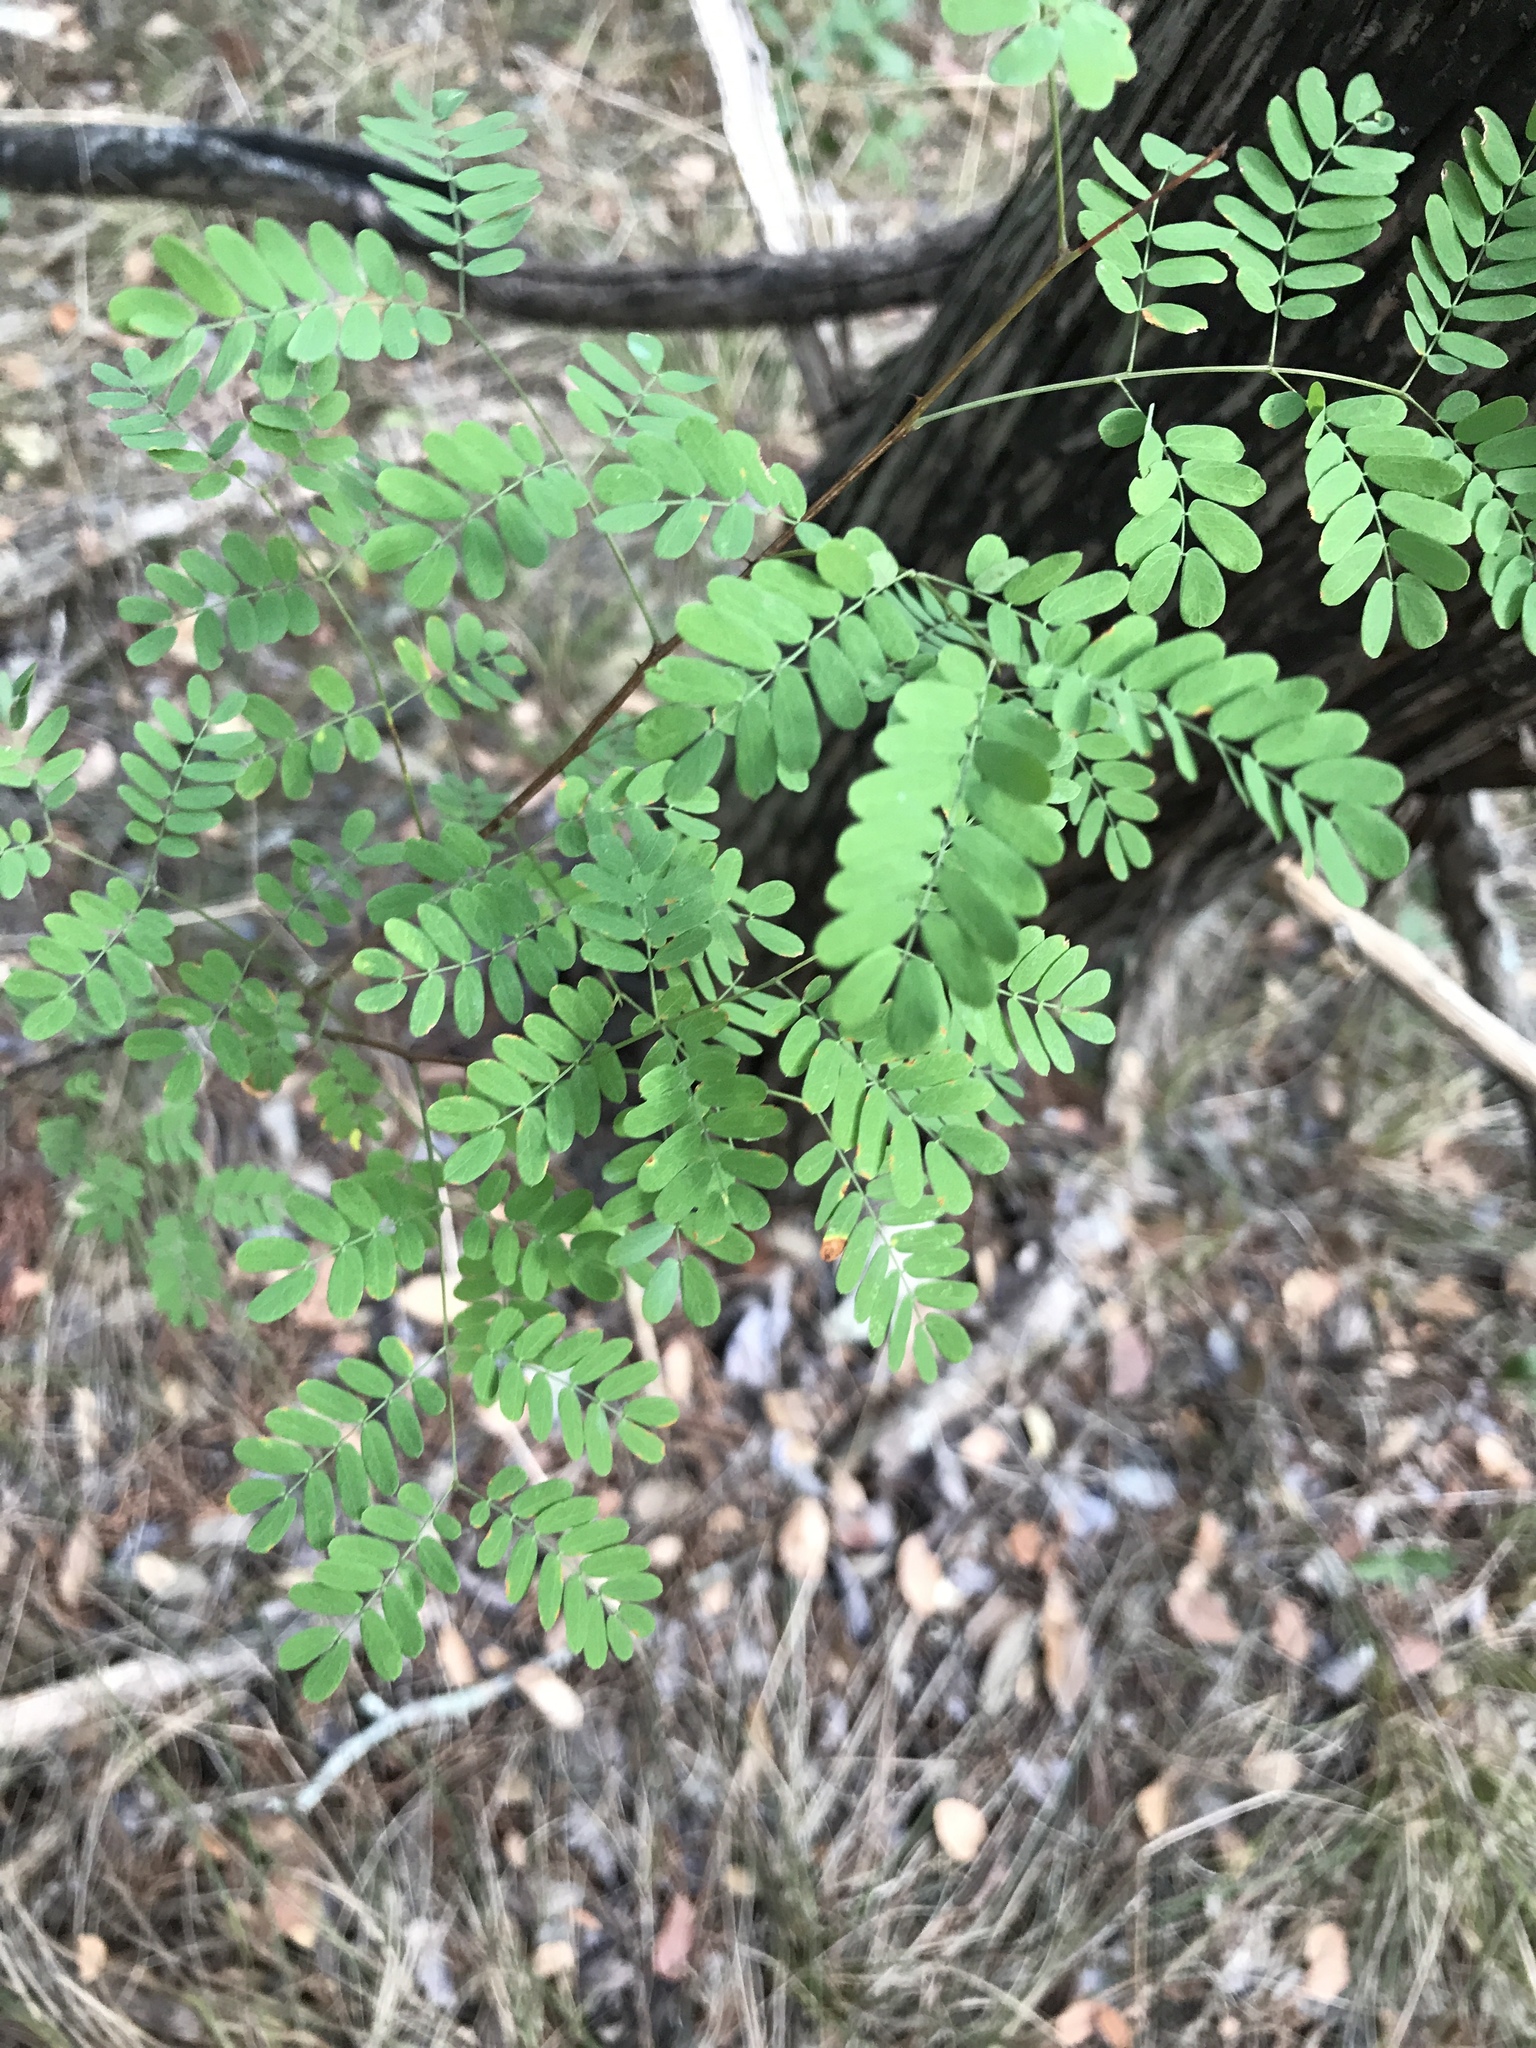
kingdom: Plantae
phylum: Tracheophyta
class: Magnoliopsida
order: Fabales
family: Fabaceae
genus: Senegalia
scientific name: Senegalia roemeriana
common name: Roemer's acacia
